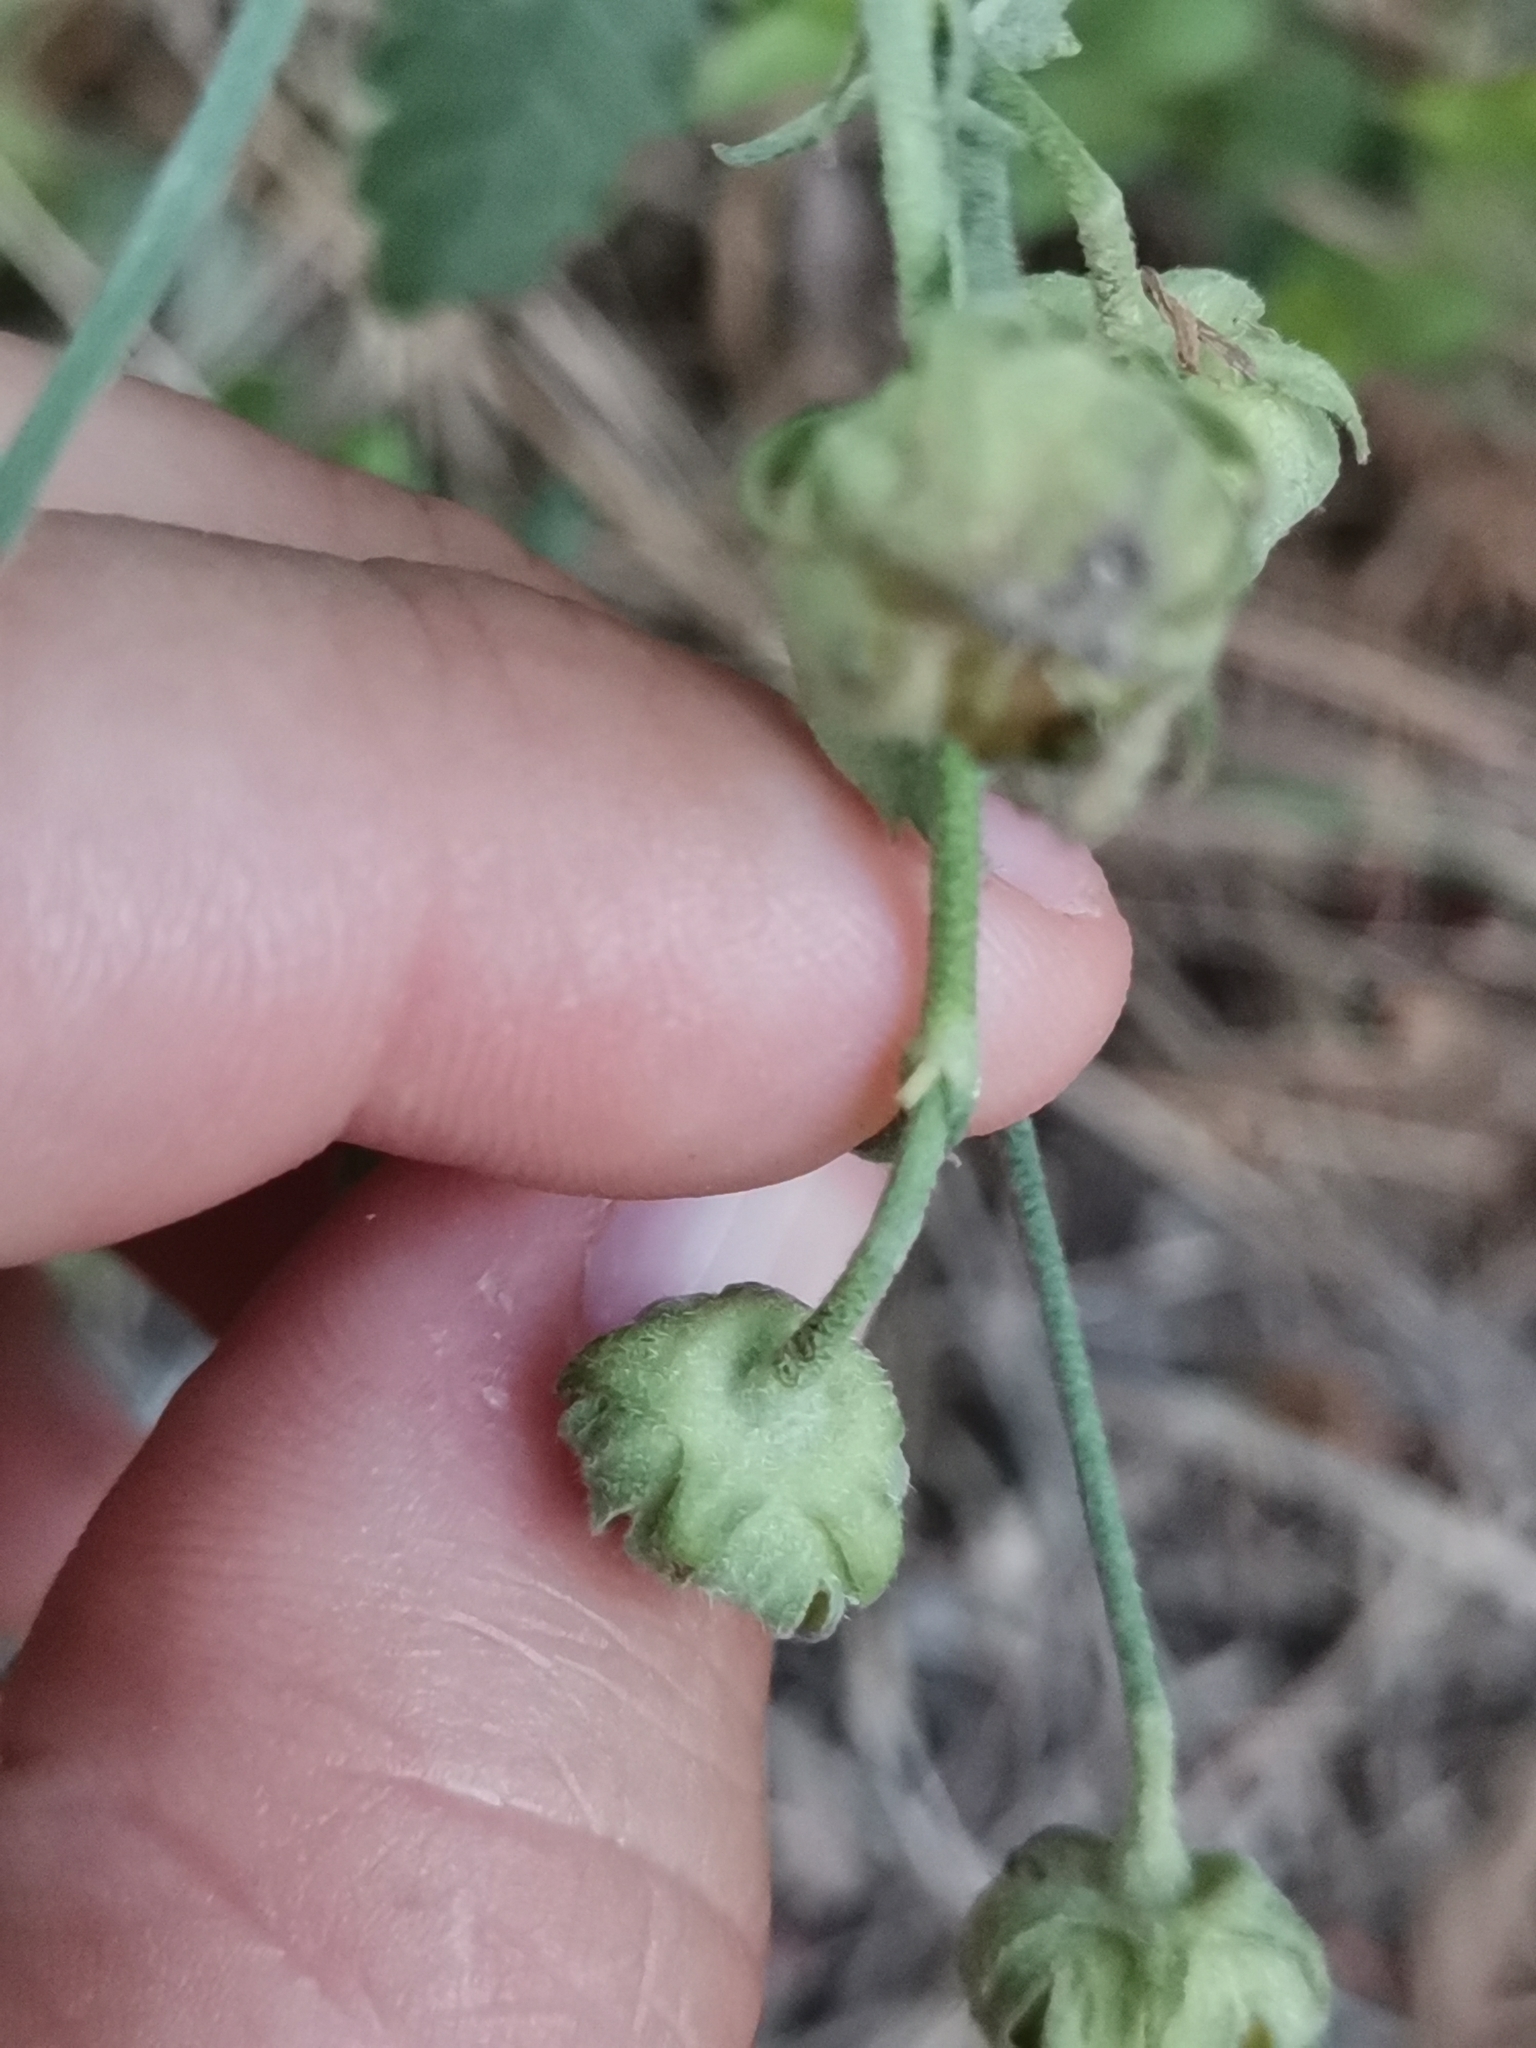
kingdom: Plantae
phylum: Tracheophyta
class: Magnoliopsida
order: Malvales
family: Malvaceae
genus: Althaea
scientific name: Althaea cannabina
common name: Palm-leaf marshmallow
